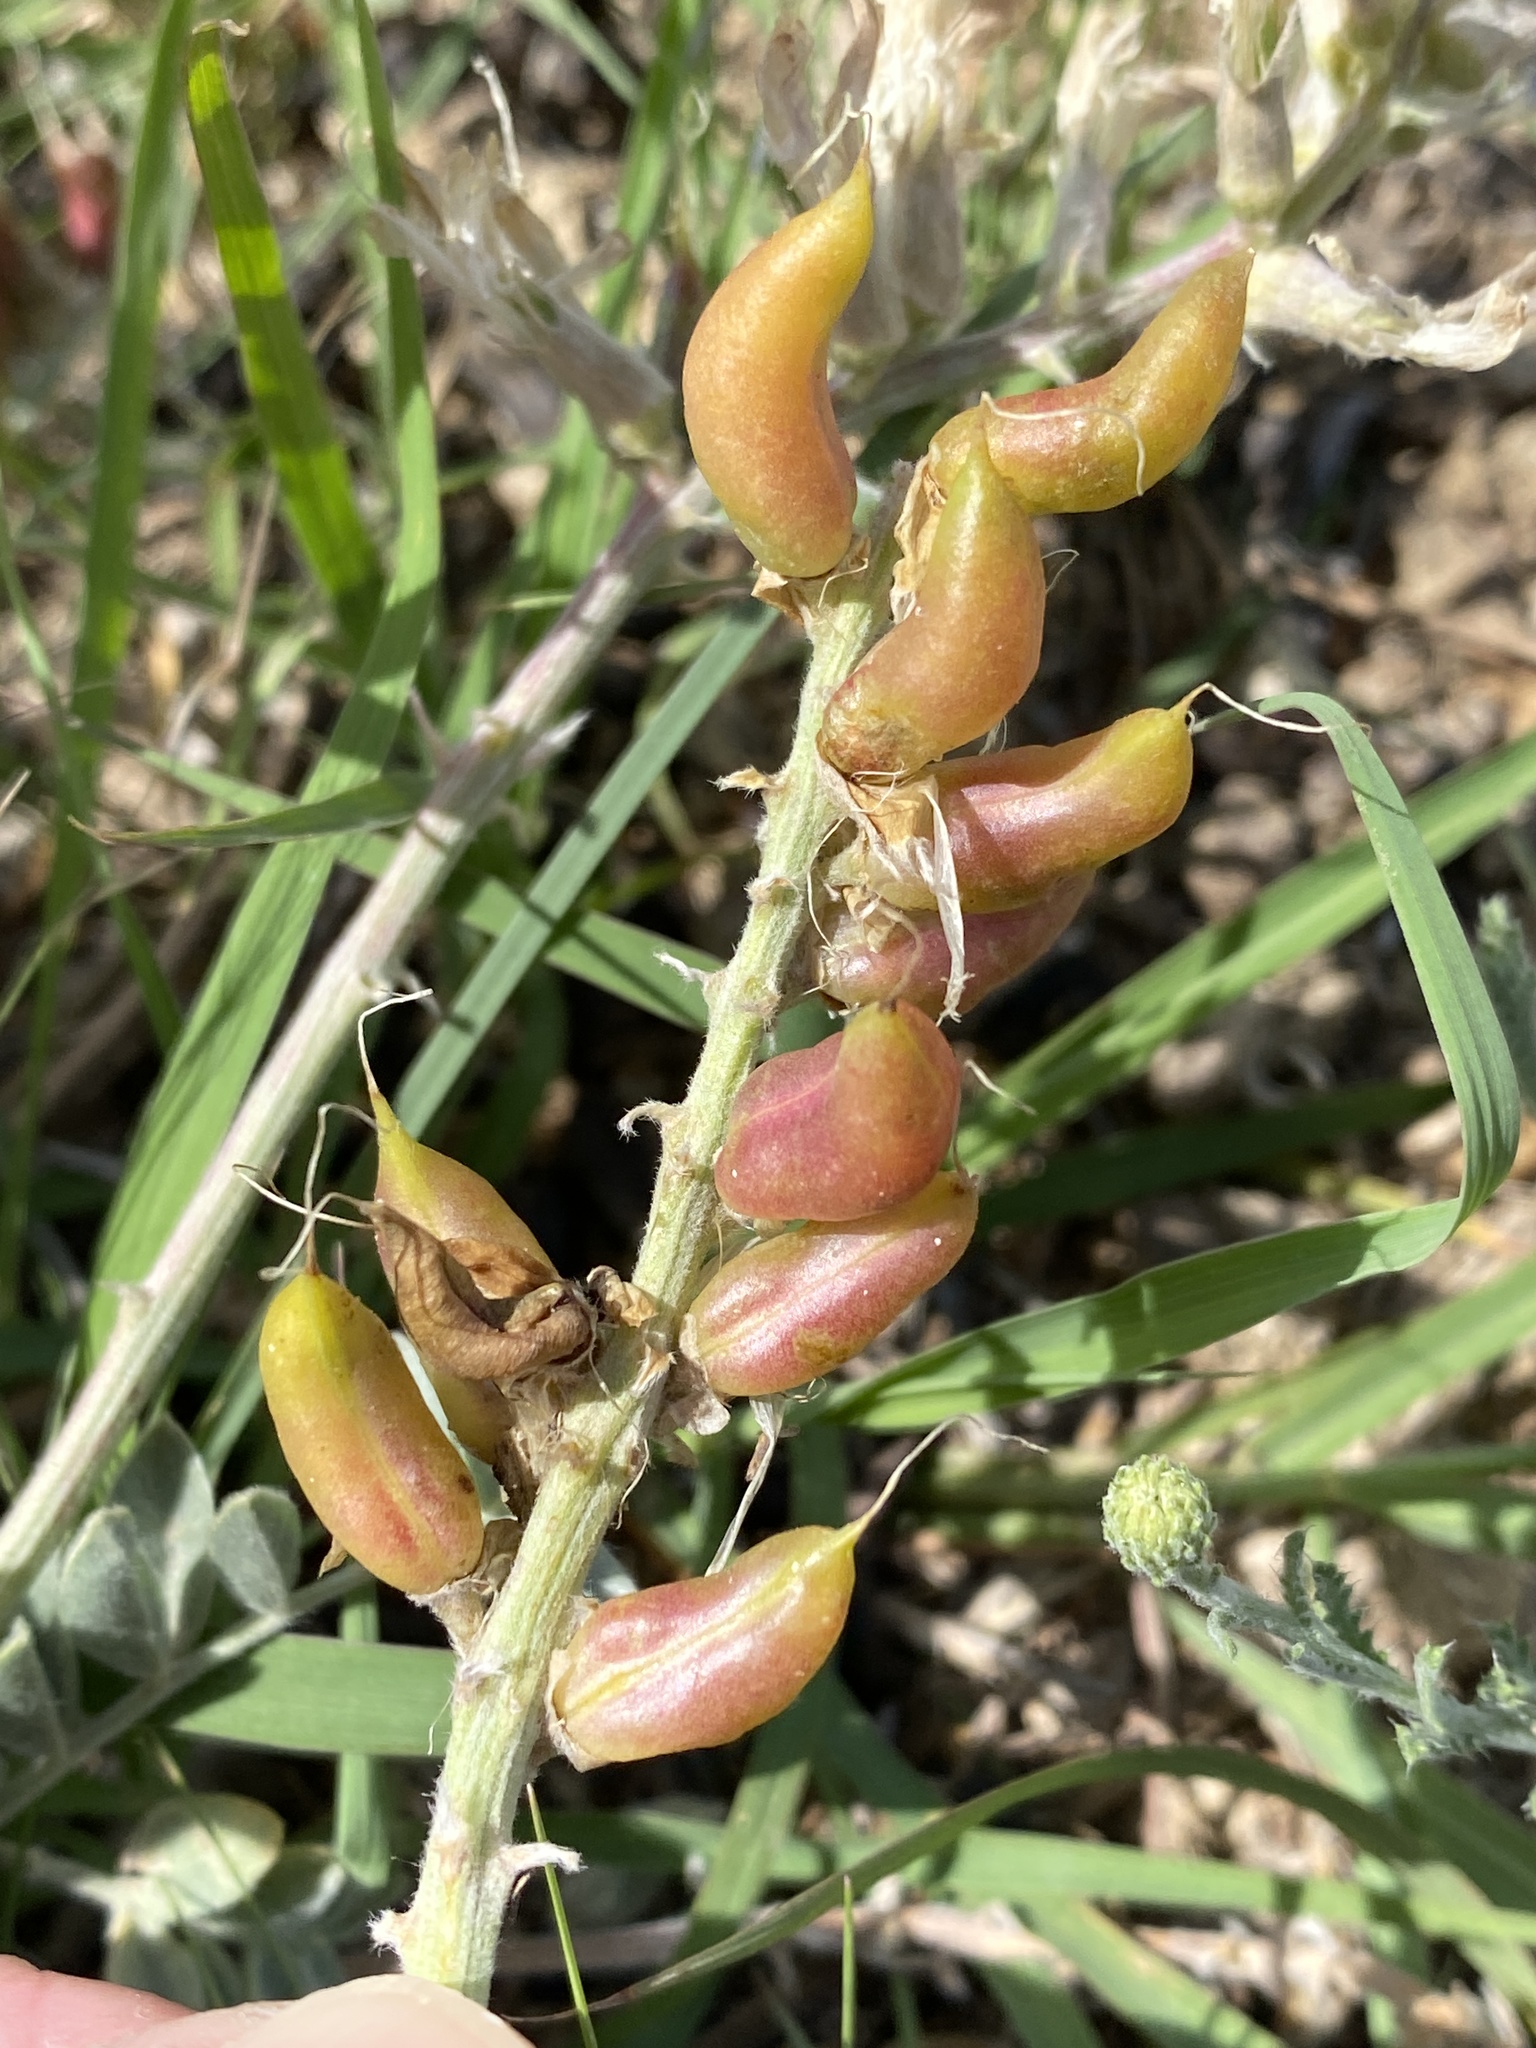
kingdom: Plantae
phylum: Tracheophyta
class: Magnoliopsida
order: Fabales
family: Fabaceae
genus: Astragalus
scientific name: Astragalus mollissimus
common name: Woolly locoweed
